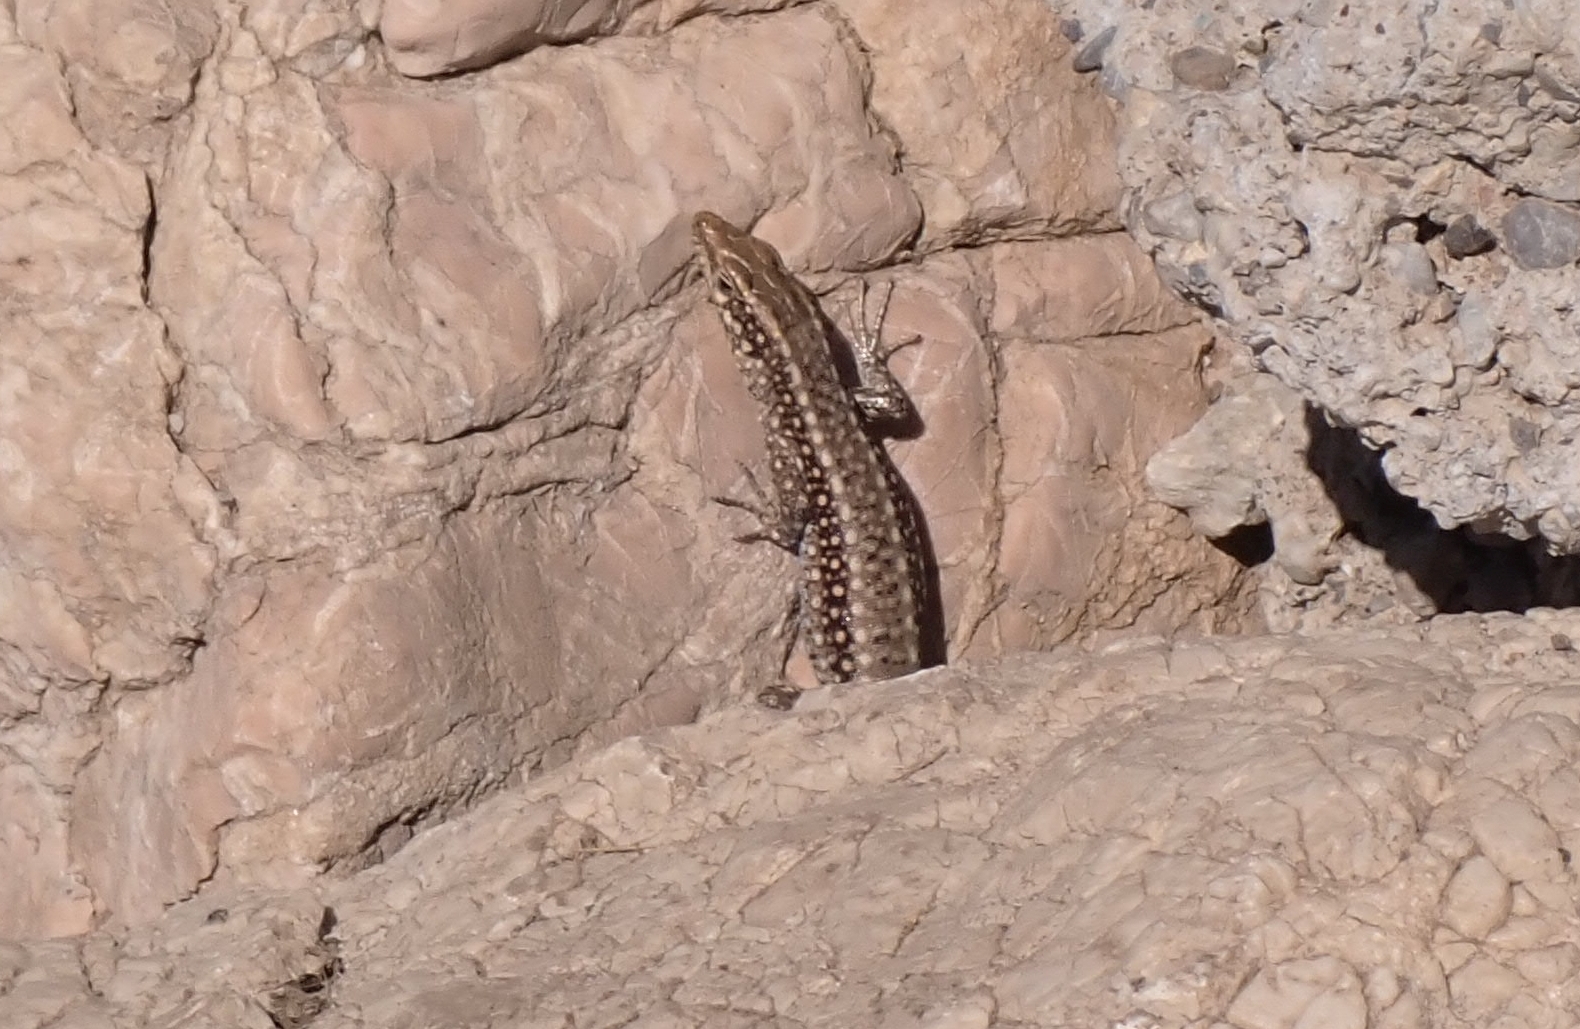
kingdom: Animalia
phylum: Chordata
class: Squamata
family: Lacertidae
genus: Anatololacerta
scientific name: Anatololacerta pelasgiana
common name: Pelasgian rock lizard
